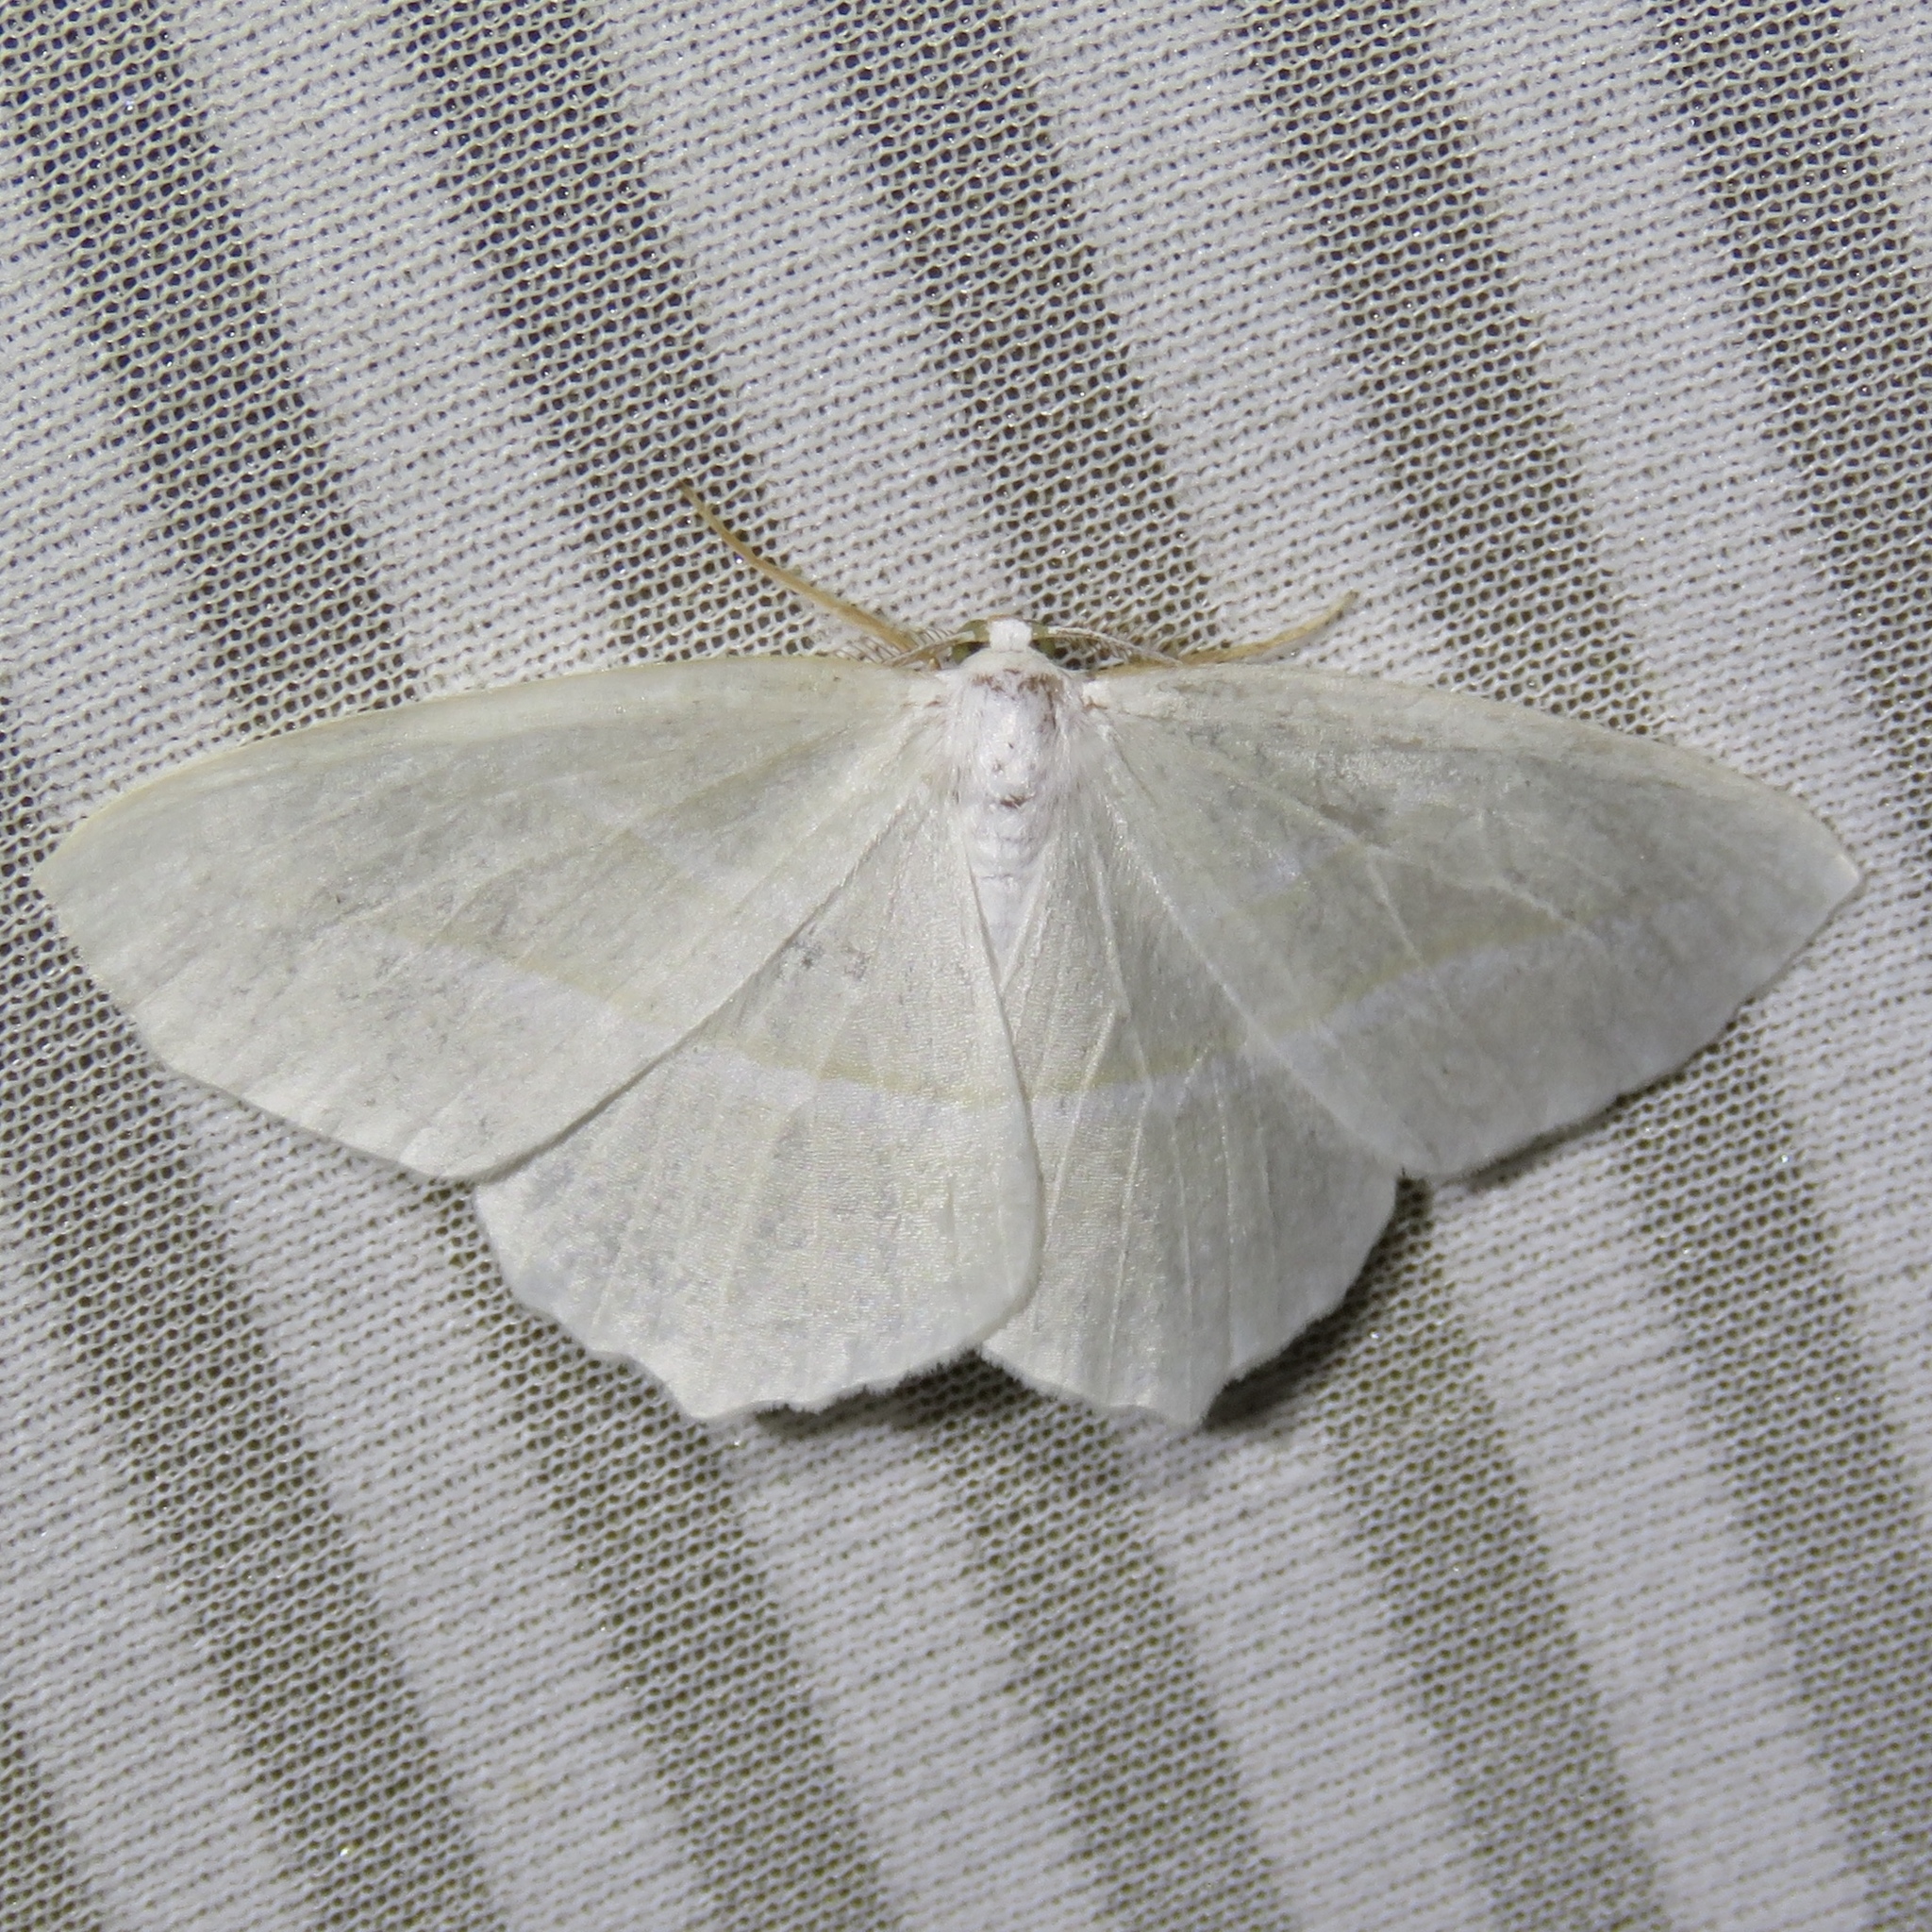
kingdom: Animalia
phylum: Arthropoda
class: Insecta
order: Lepidoptera
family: Geometridae
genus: Campaea
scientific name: Campaea perlata
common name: Fringed looper
